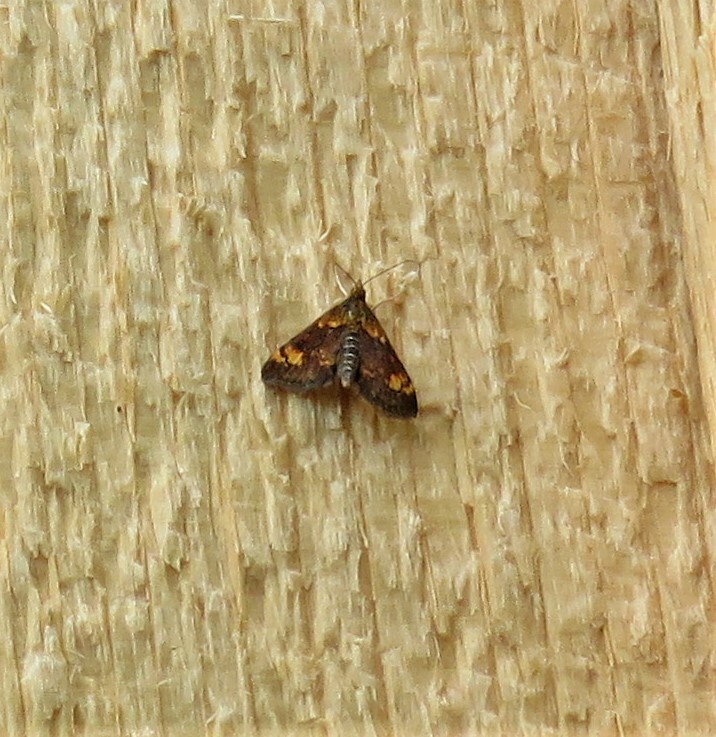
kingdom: Animalia
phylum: Arthropoda
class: Insecta
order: Lepidoptera
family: Crambidae
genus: Pyrausta
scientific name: Pyrausta orphisalis
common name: Orange mint moth
